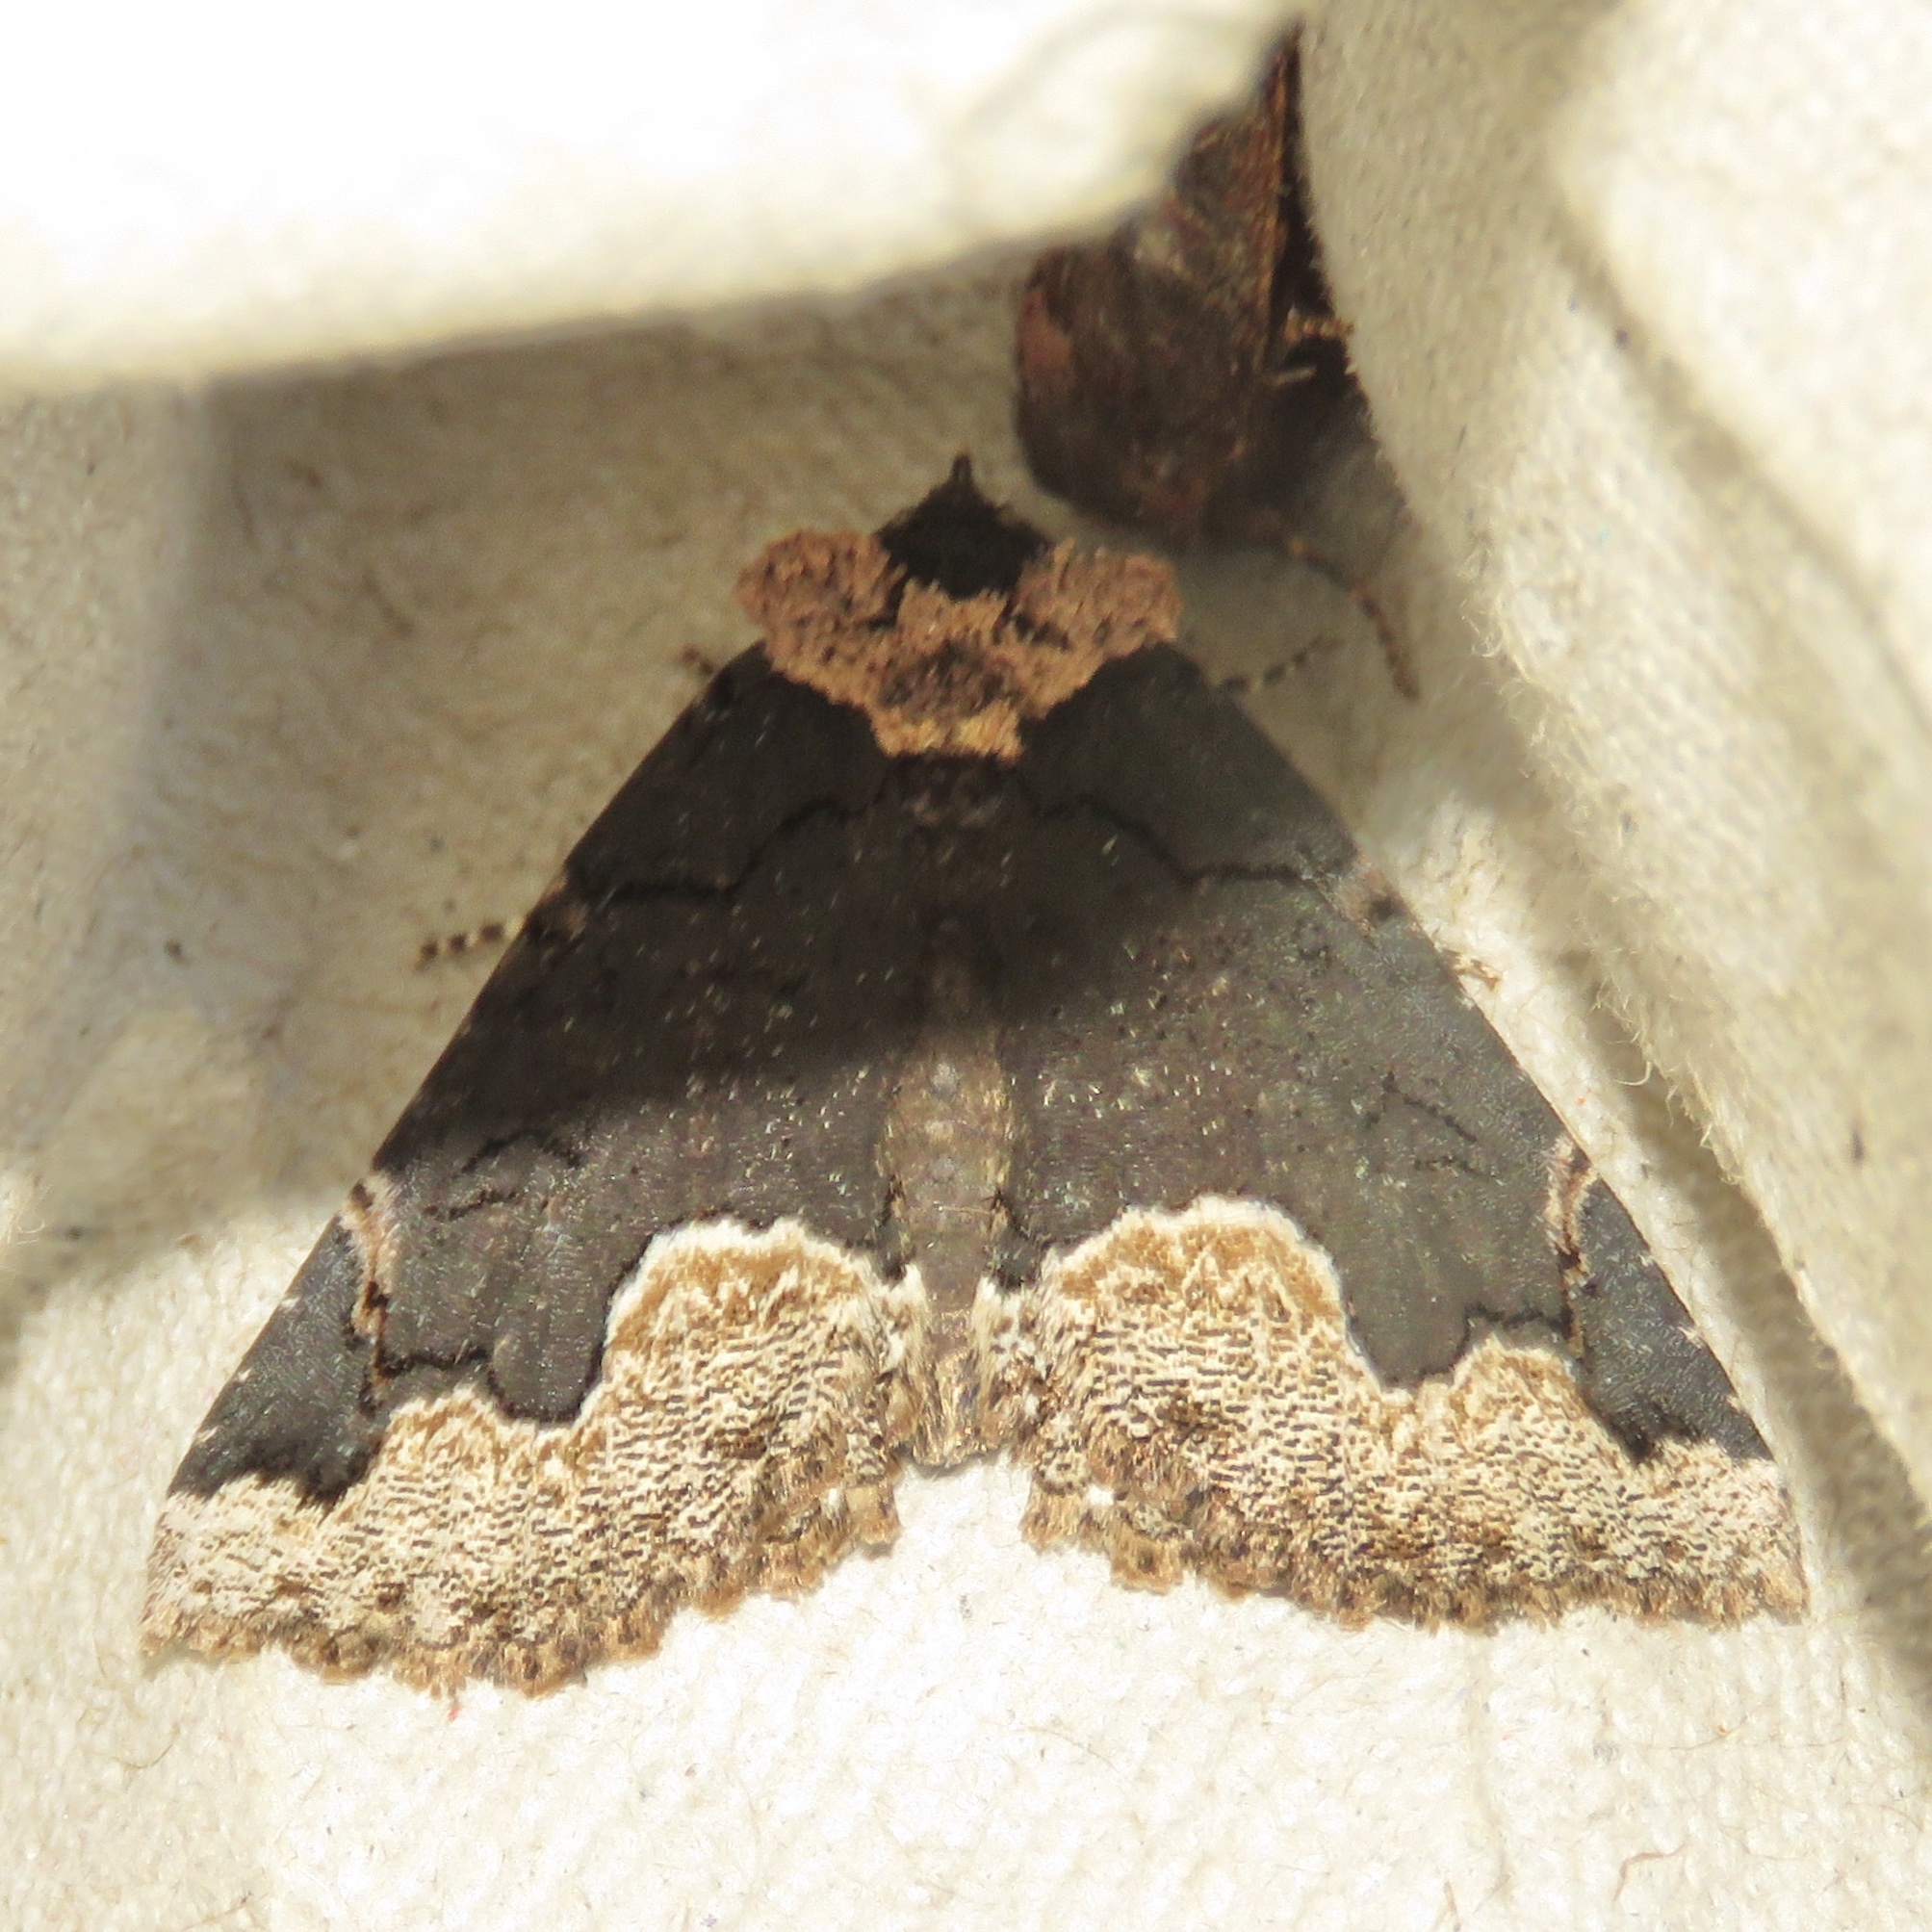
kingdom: Animalia
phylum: Arthropoda
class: Insecta
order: Lepidoptera
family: Erebidae
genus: Zale
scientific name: Zale horrida
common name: Horrid zale moth
